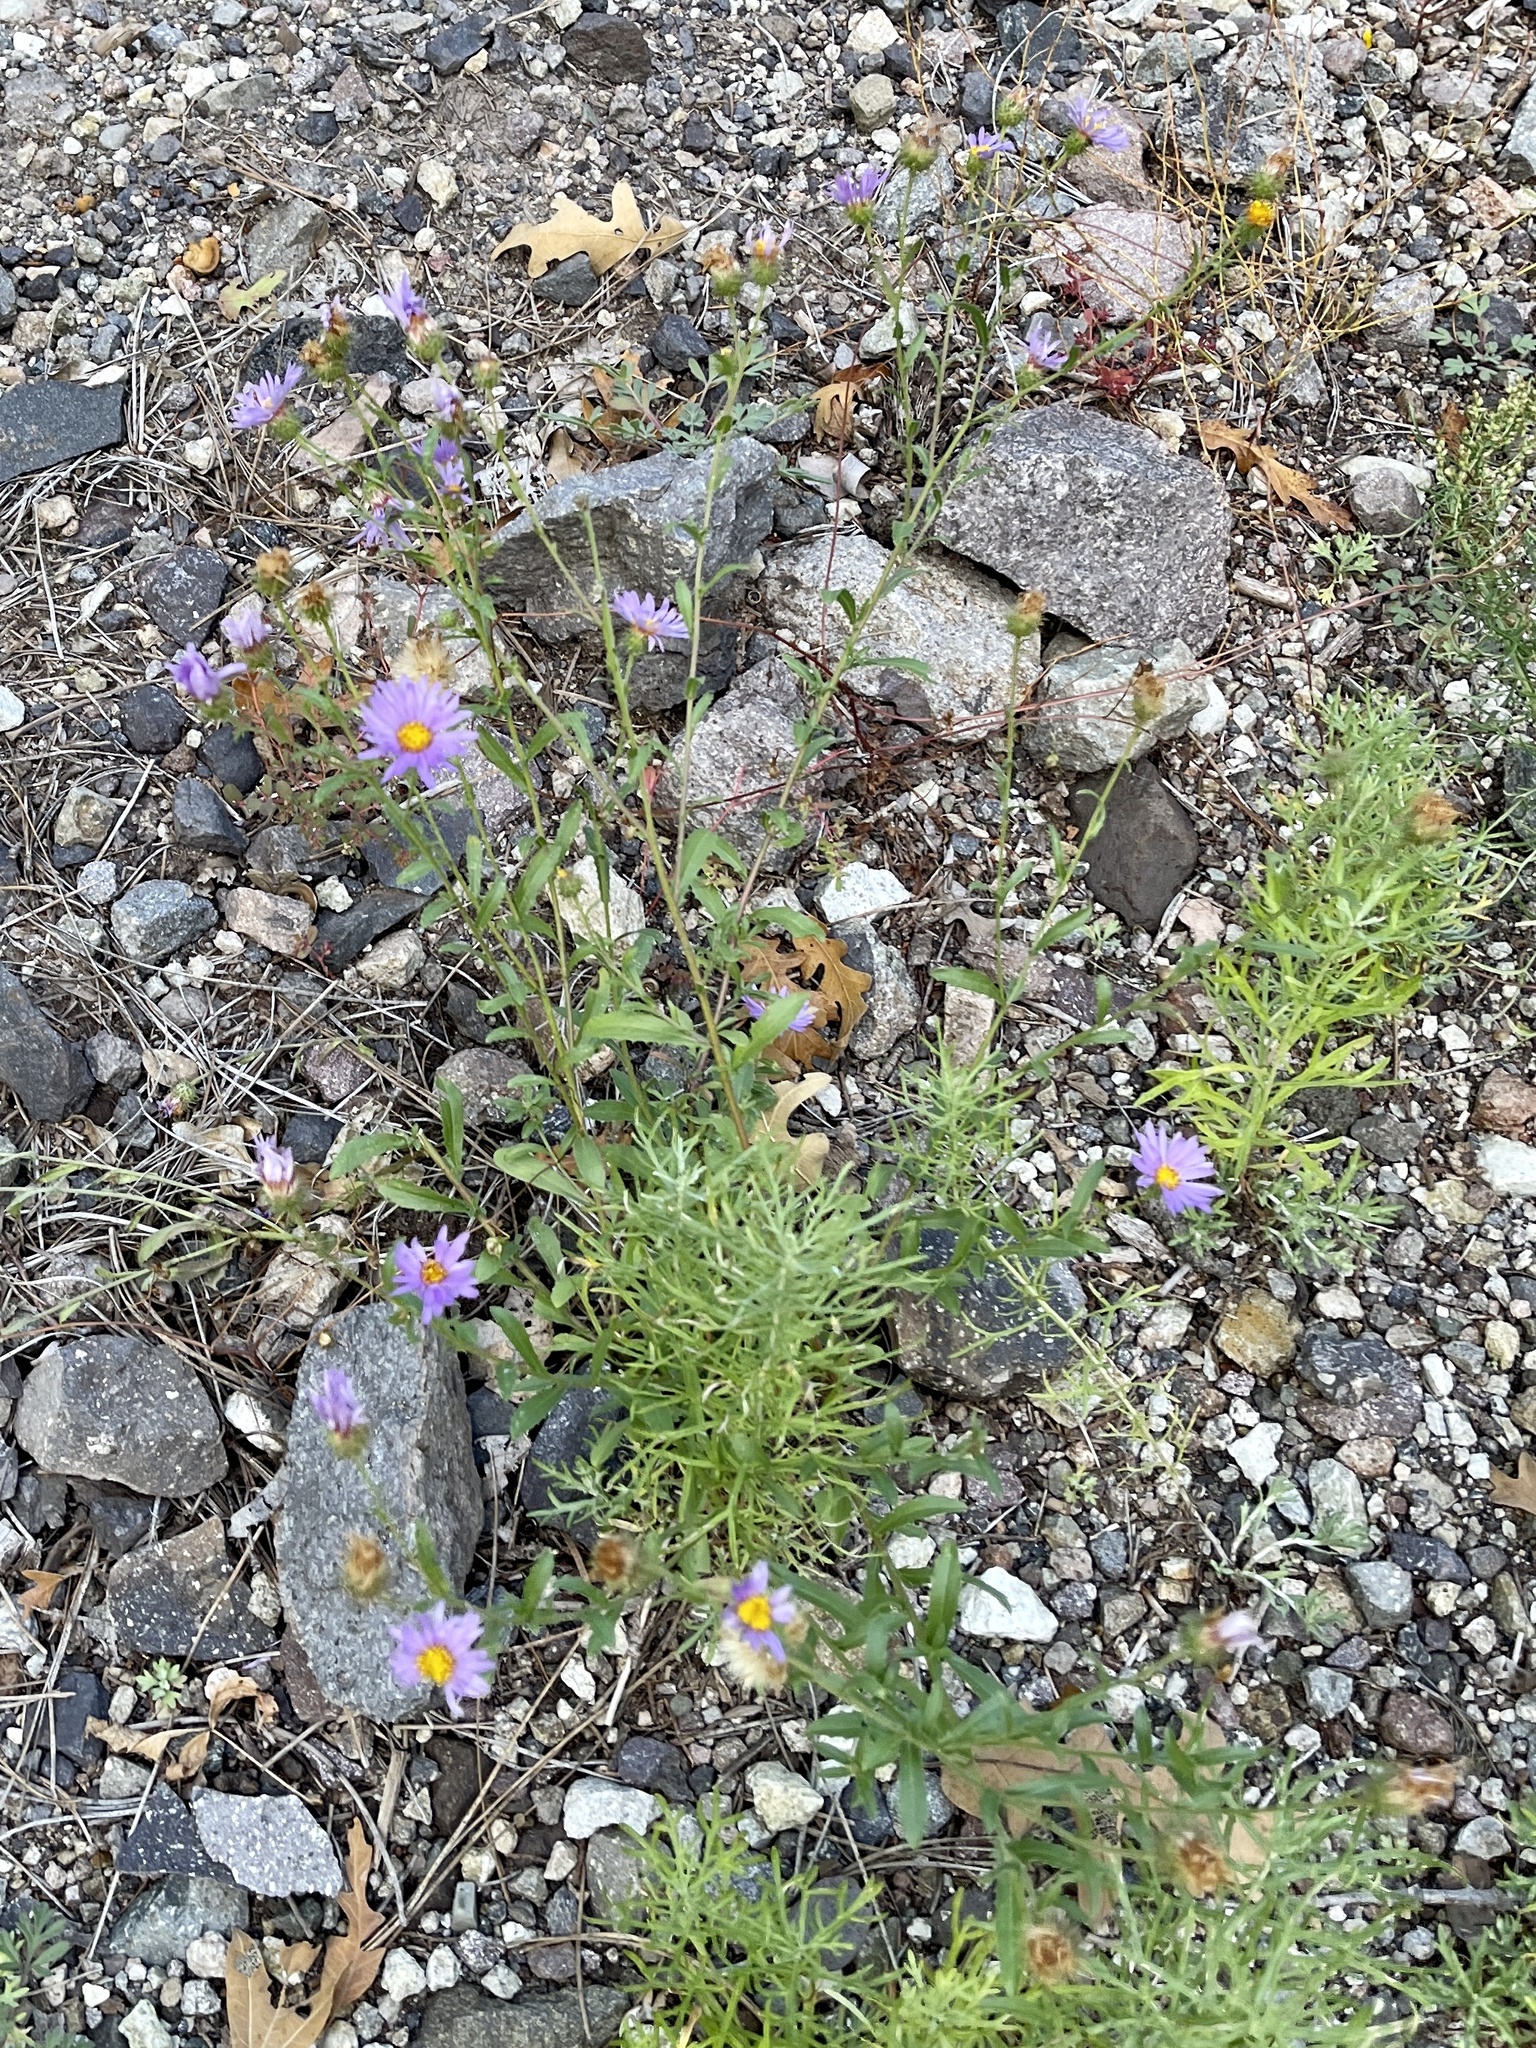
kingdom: Plantae
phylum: Tracheophyta
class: Magnoliopsida
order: Asterales
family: Asteraceae
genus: Dieteria
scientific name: Dieteria canescens
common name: Hoary-aster
